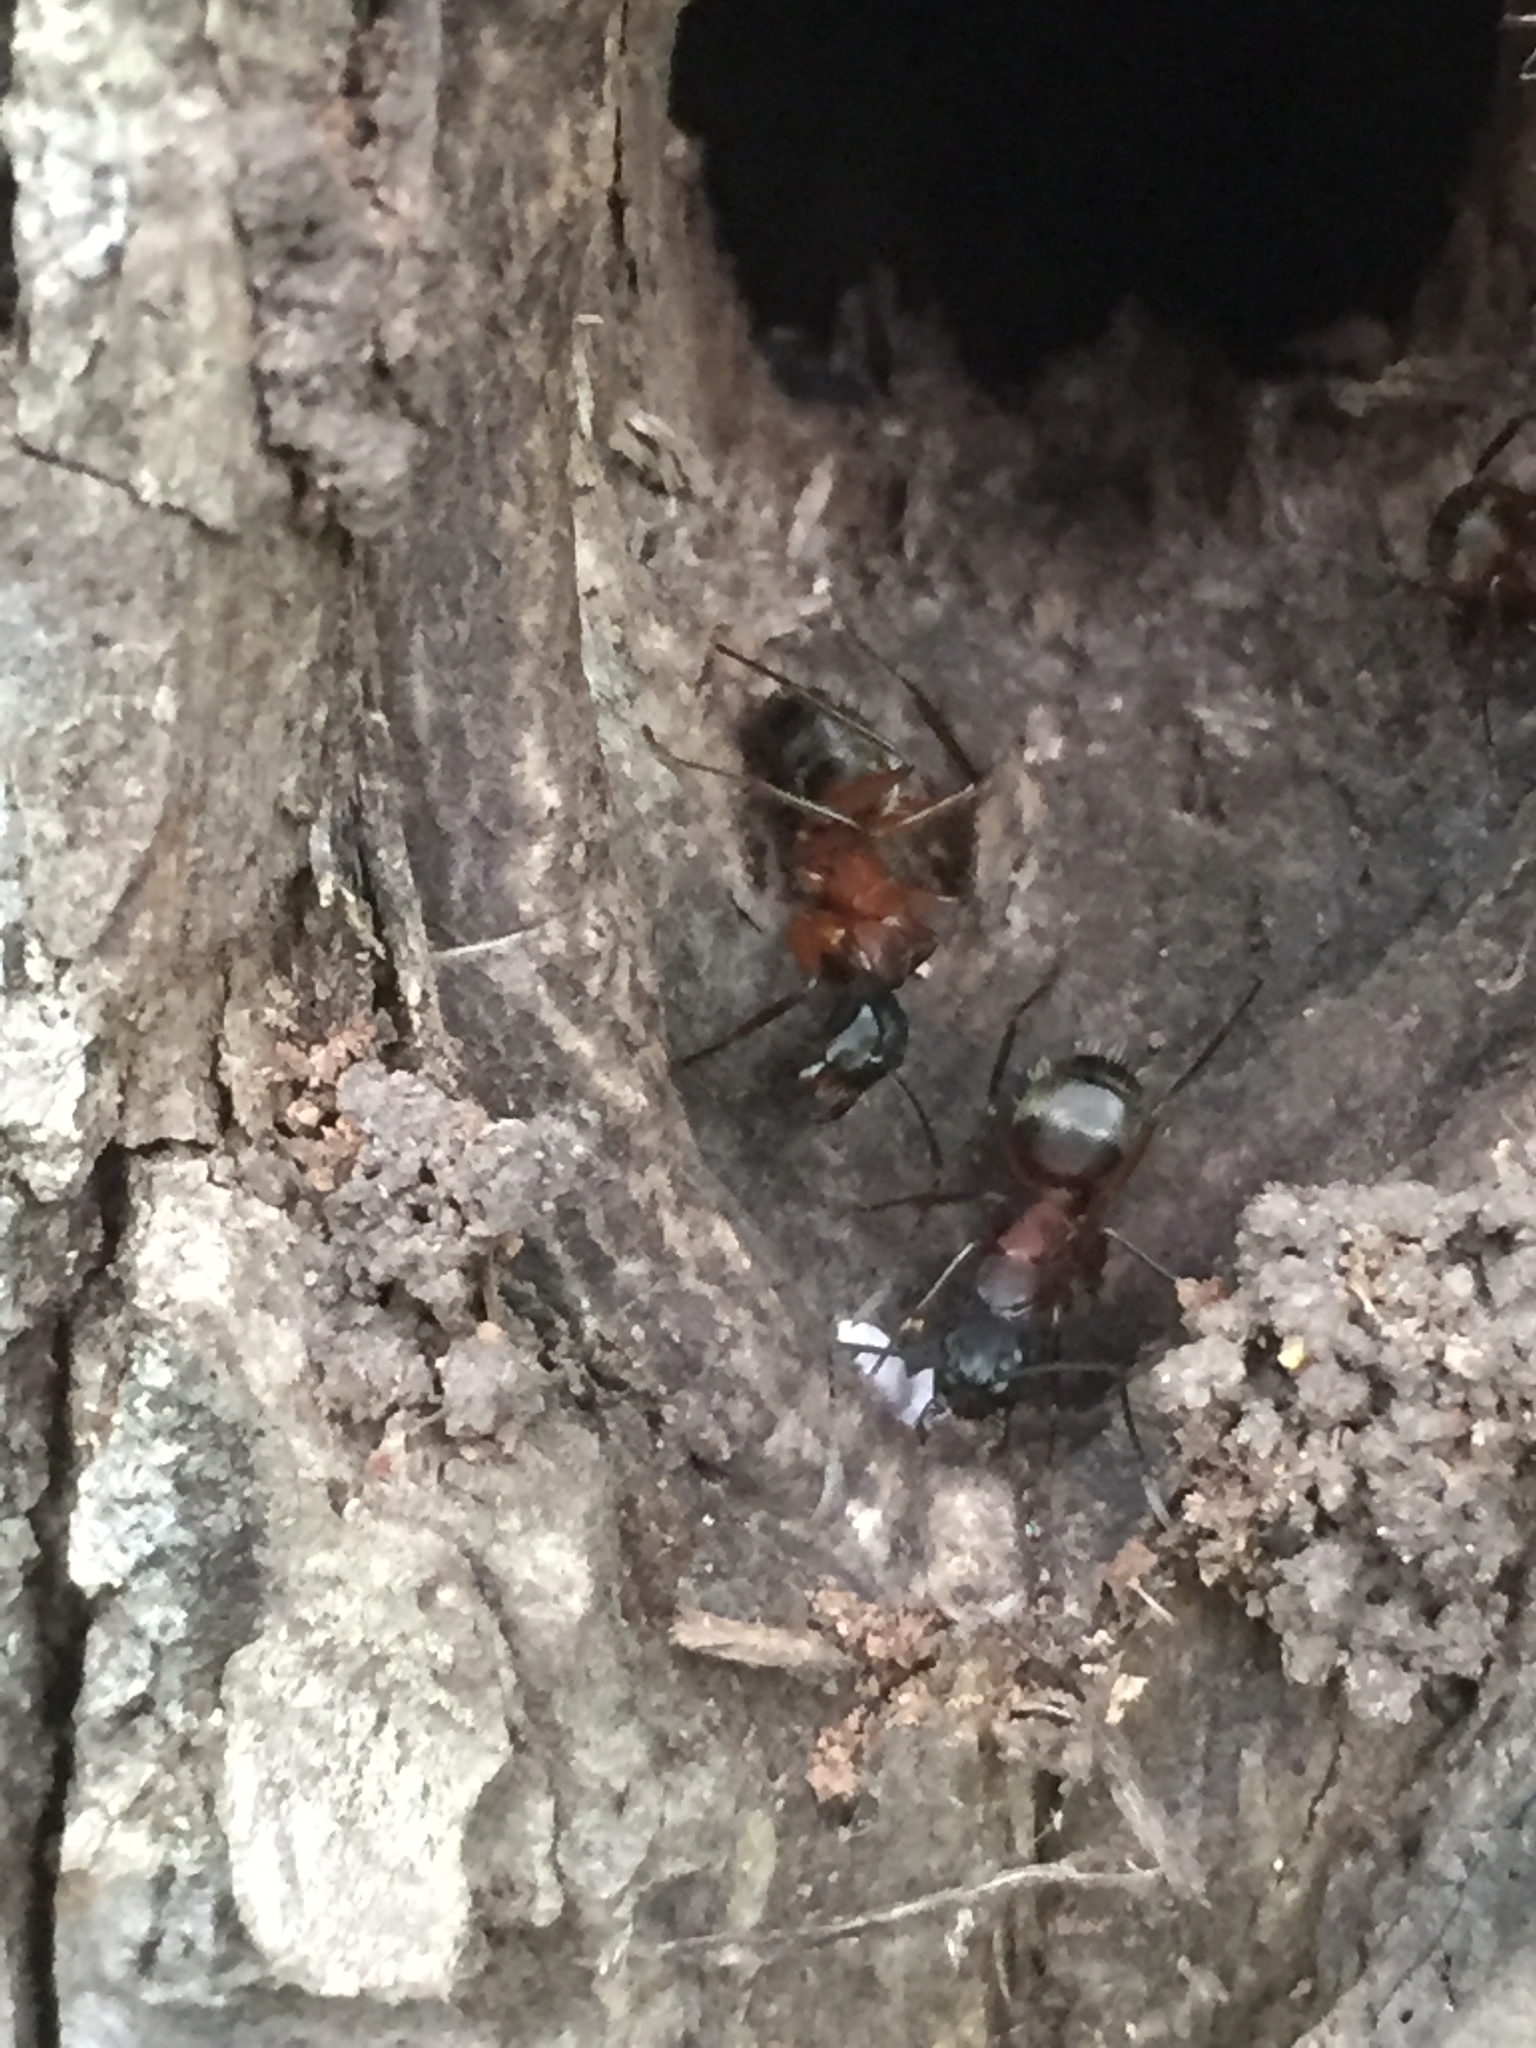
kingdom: Animalia
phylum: Arthropoda
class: Insecta
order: Hymenoptera
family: Formicidae
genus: Camponotus
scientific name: Camponotus chromaiodes
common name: Red carpenter ant
